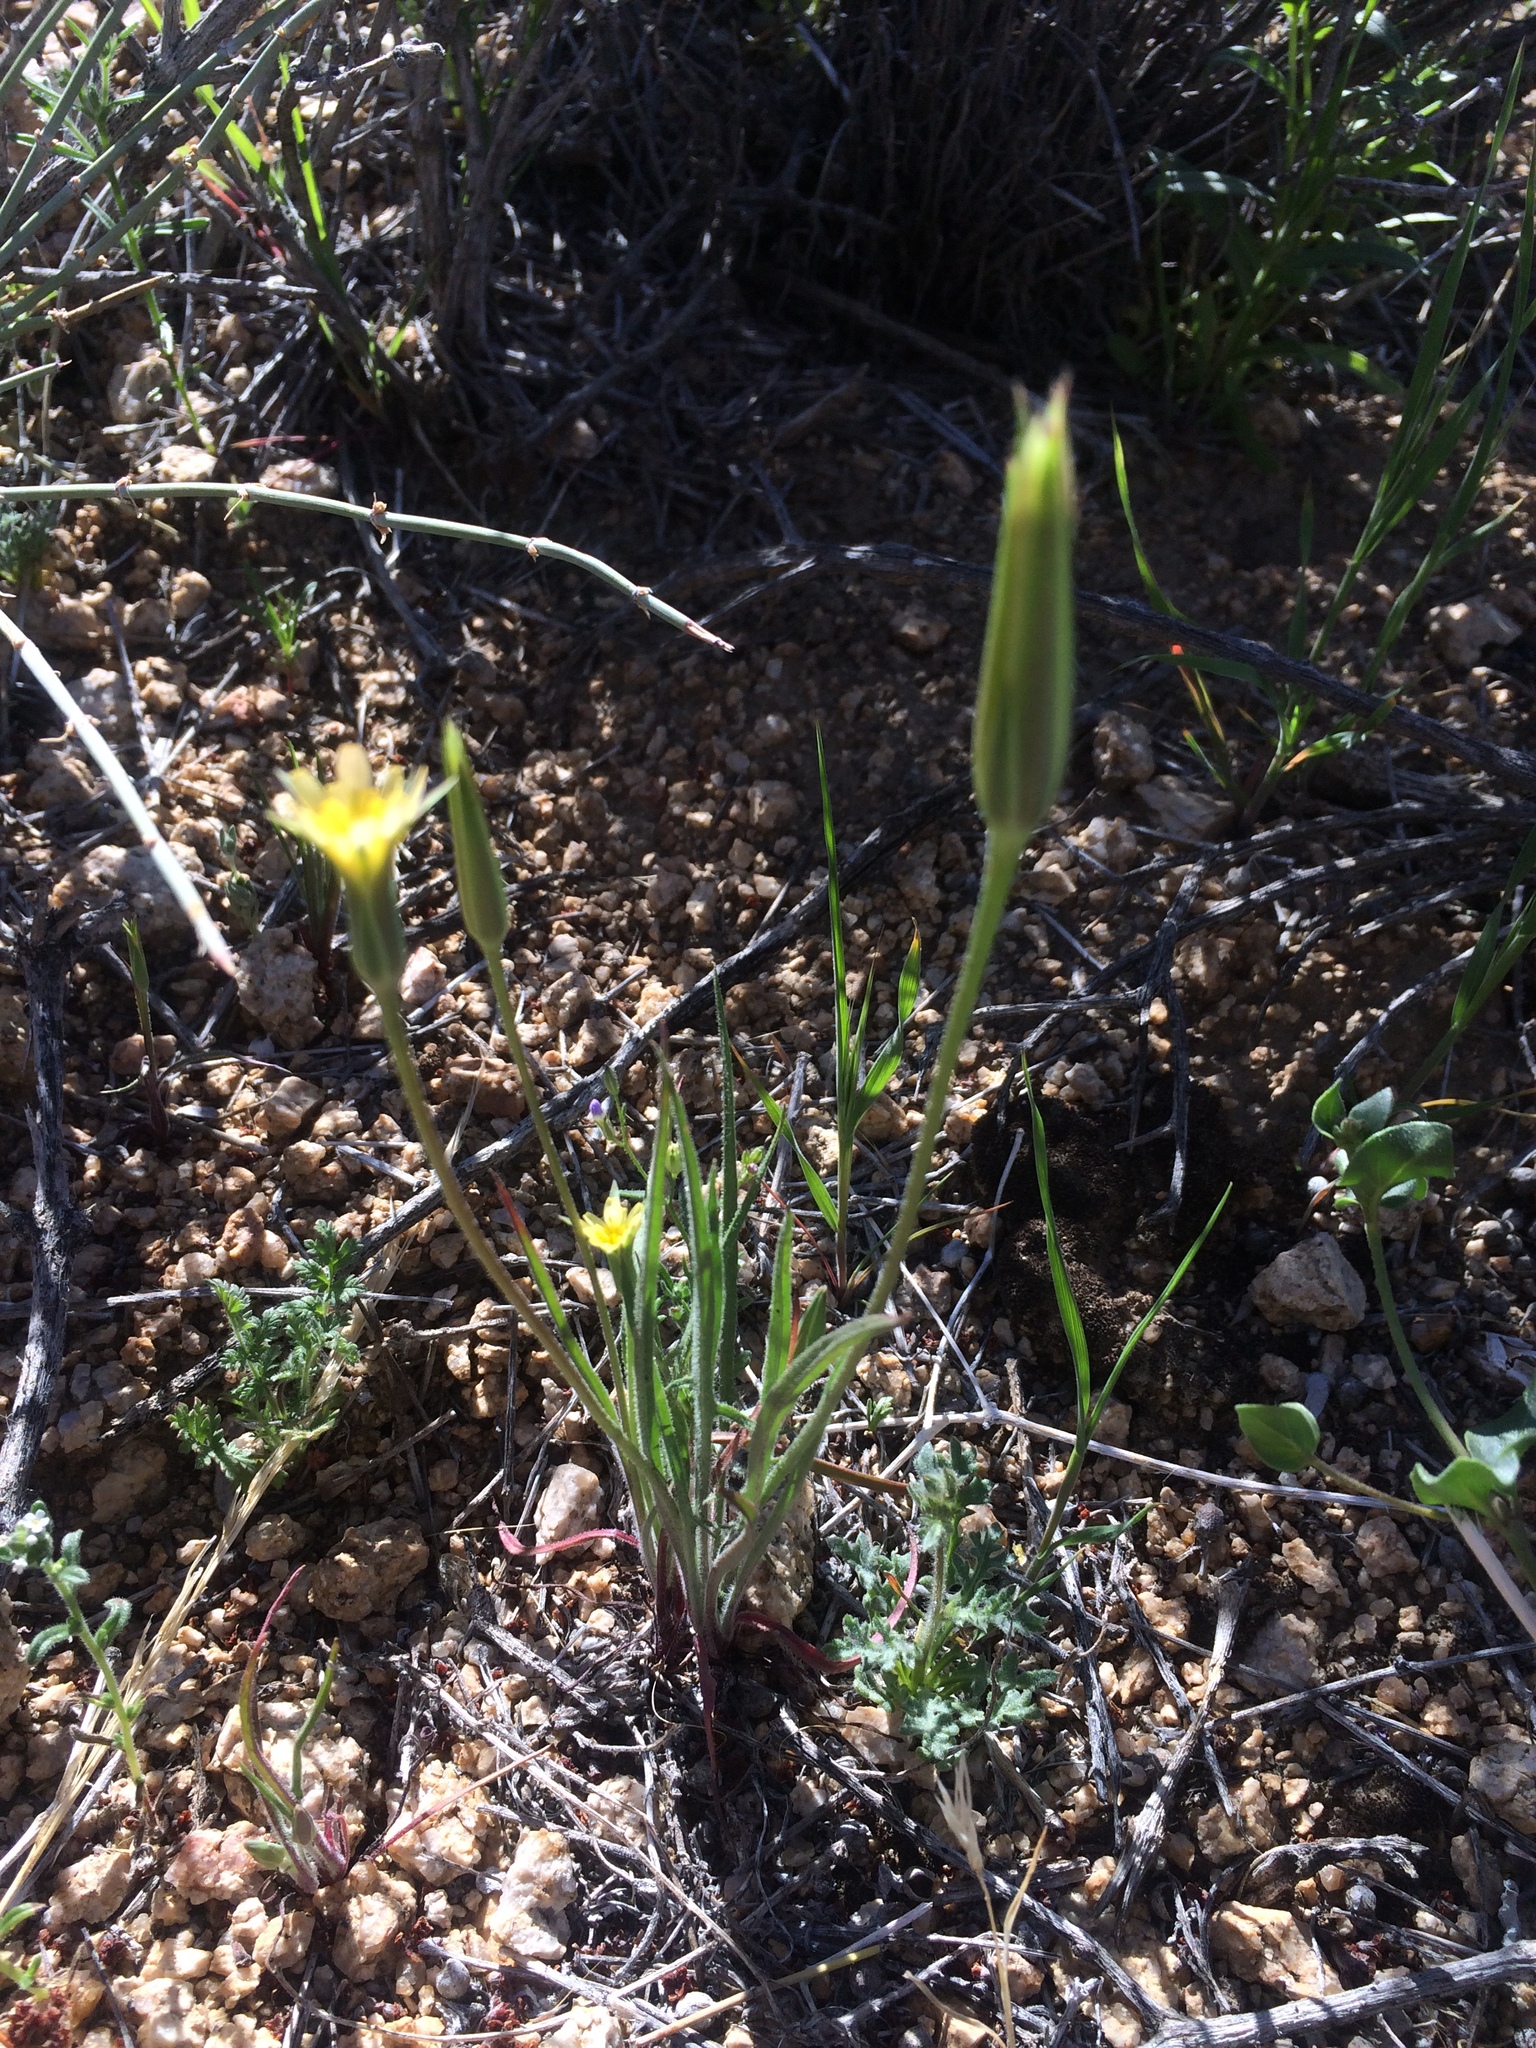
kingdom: Plantae
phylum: Tracheophyta
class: Magnoliopsida
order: Asterales
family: Asteraceae
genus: Microseris
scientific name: Microseris lindleyi
